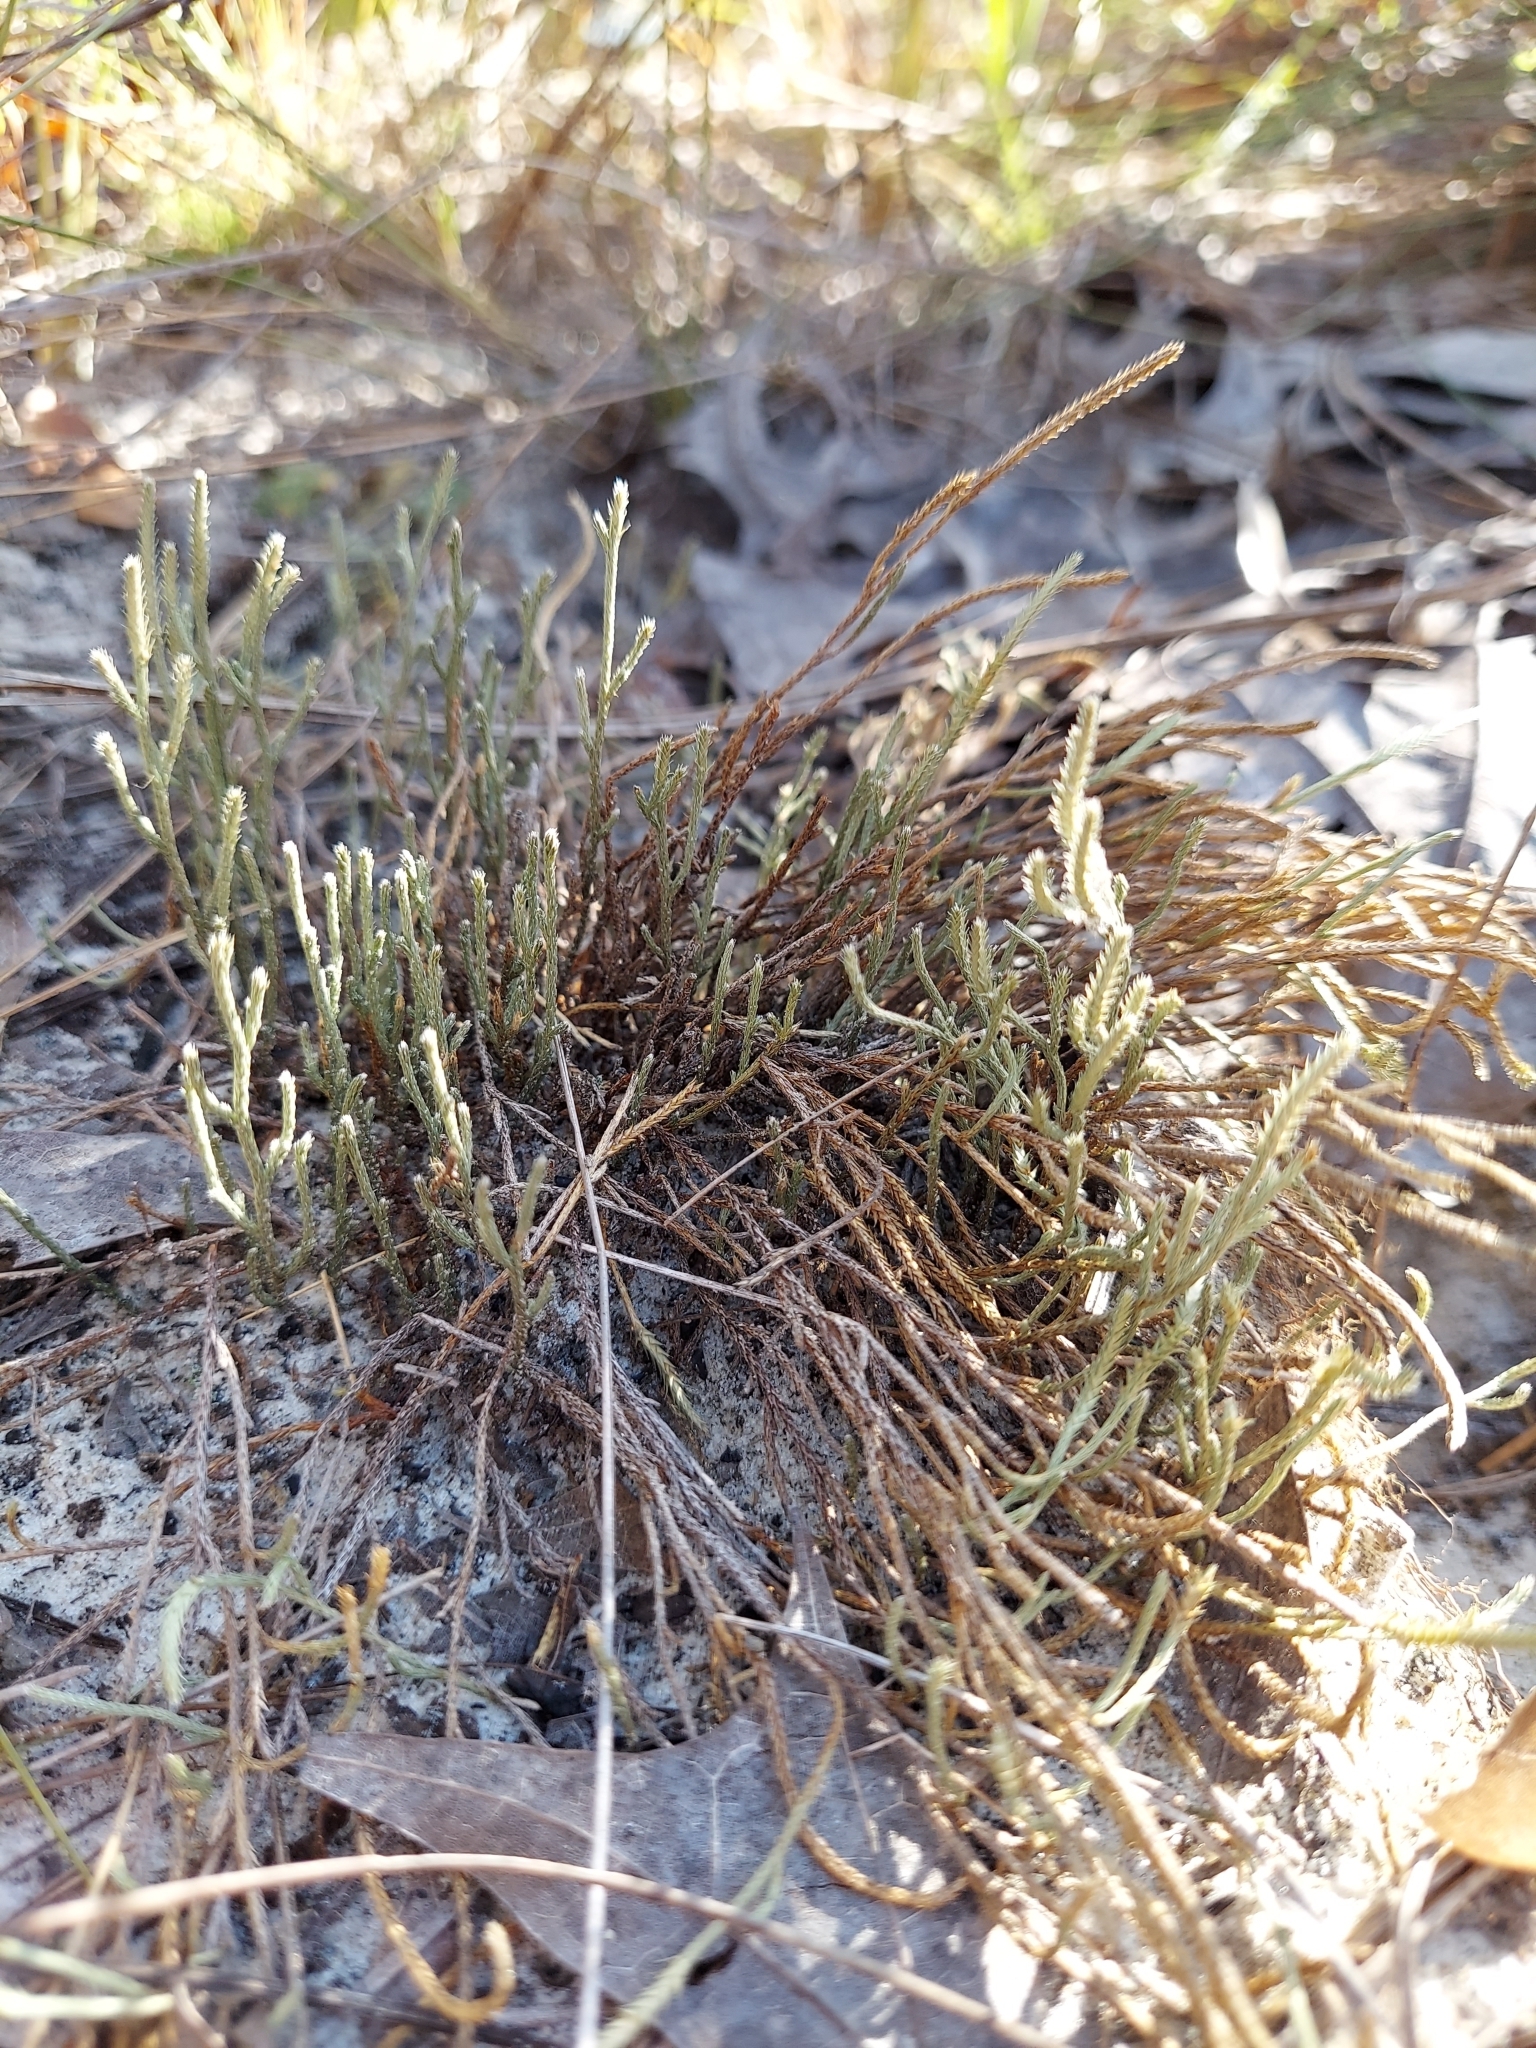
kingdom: Plantae
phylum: Tracheophyta
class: Lycopodiopsida
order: Selaginellales
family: Selaginellaceae
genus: Selaginella
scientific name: Selaginella arenicola
